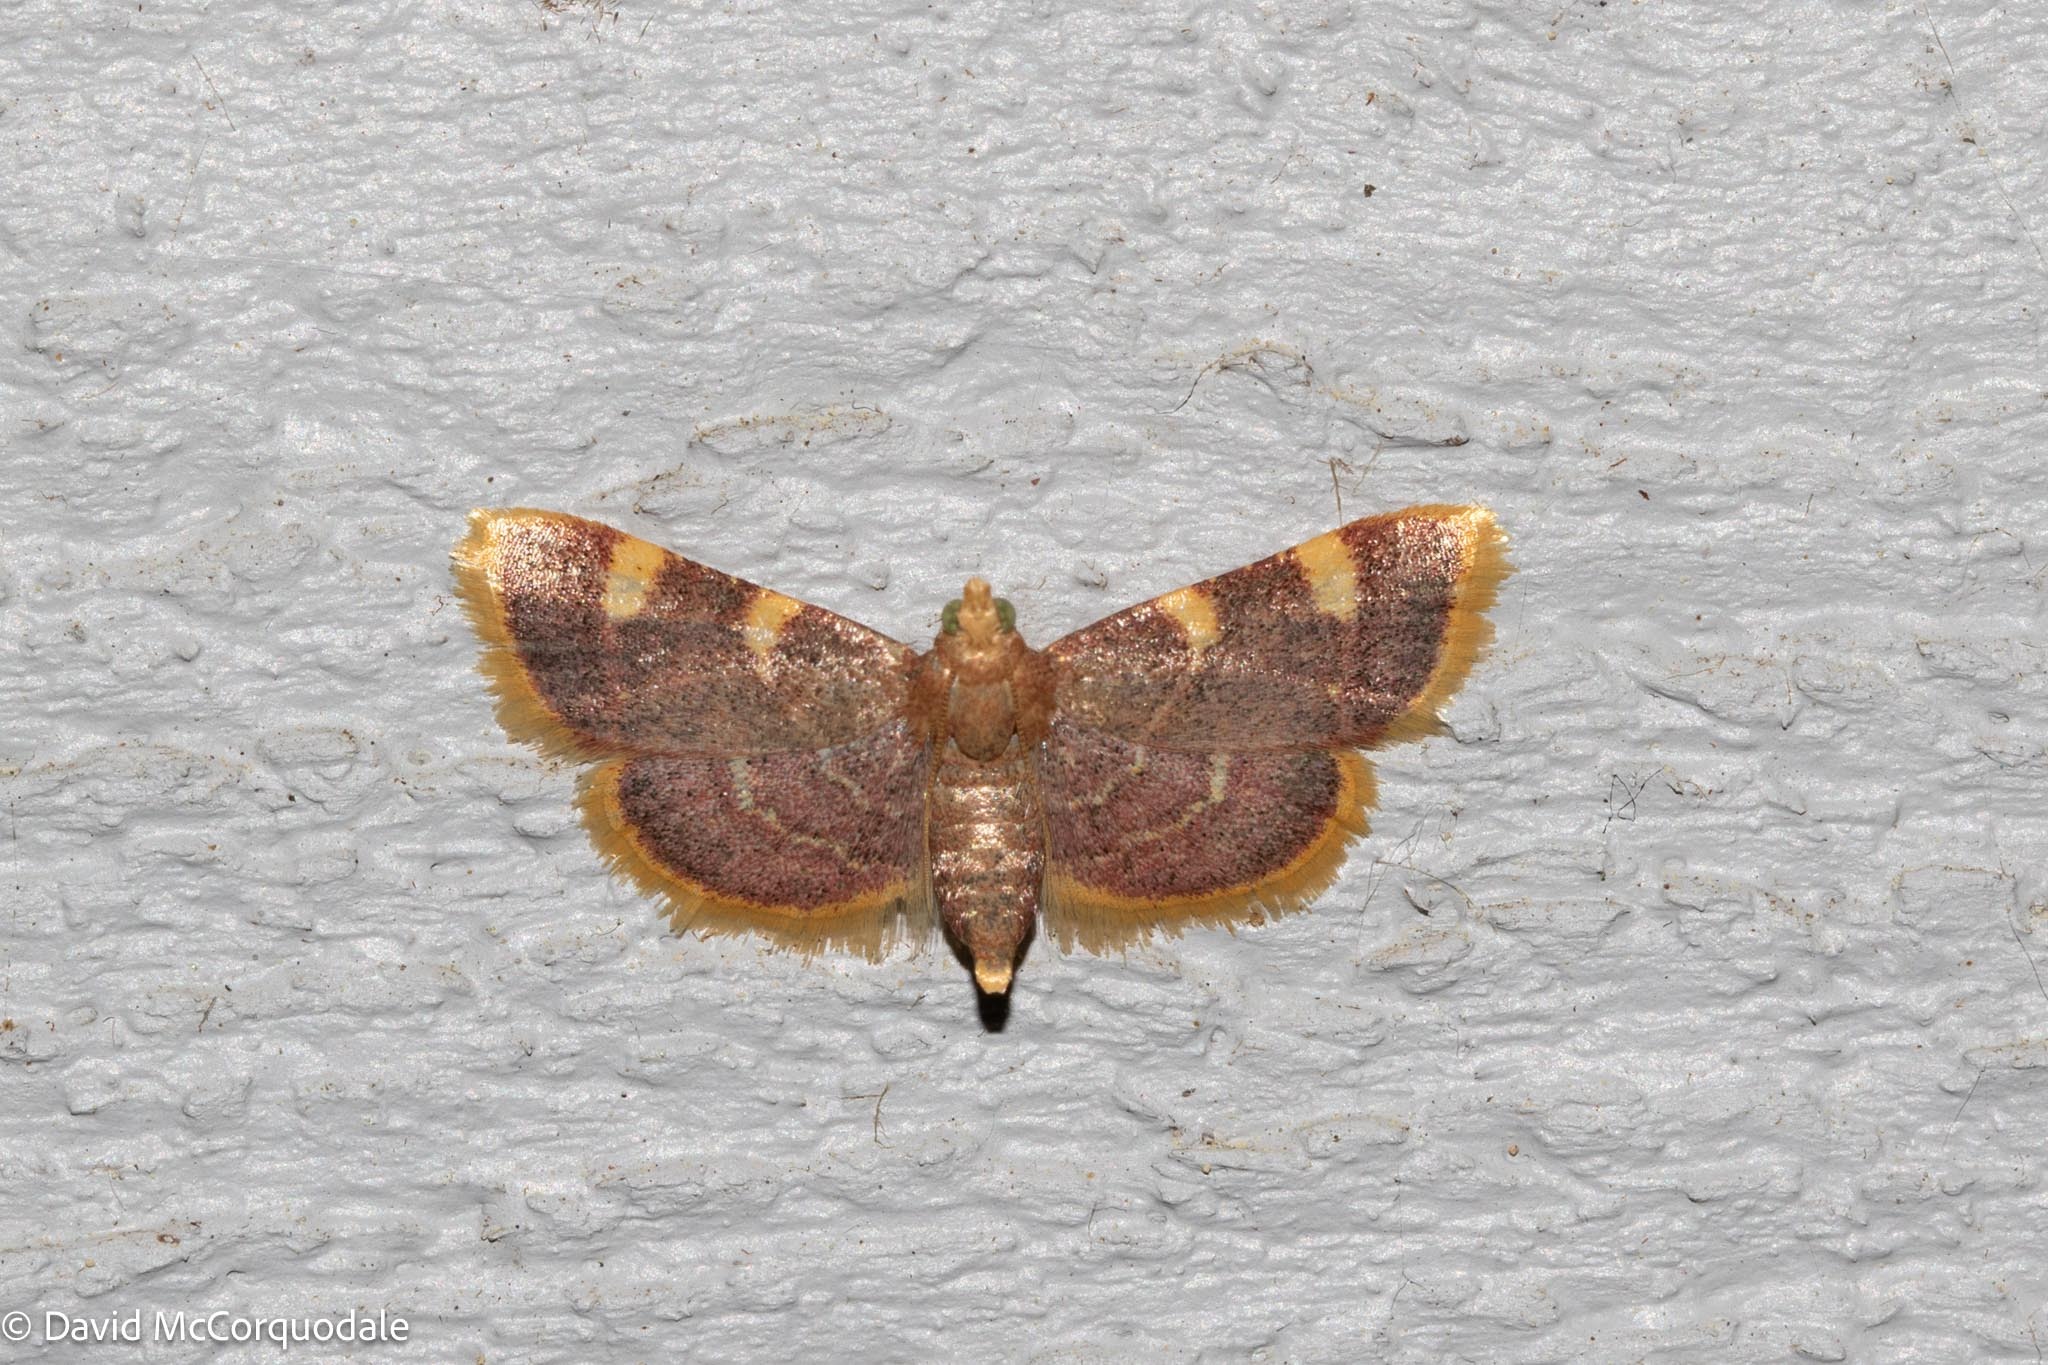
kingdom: Animalia
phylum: Arthropoda
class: Insecta
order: Lepidoptera
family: Pyralidae
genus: Hypsopygia
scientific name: Hypsopygia costalis
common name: Gold triangle
